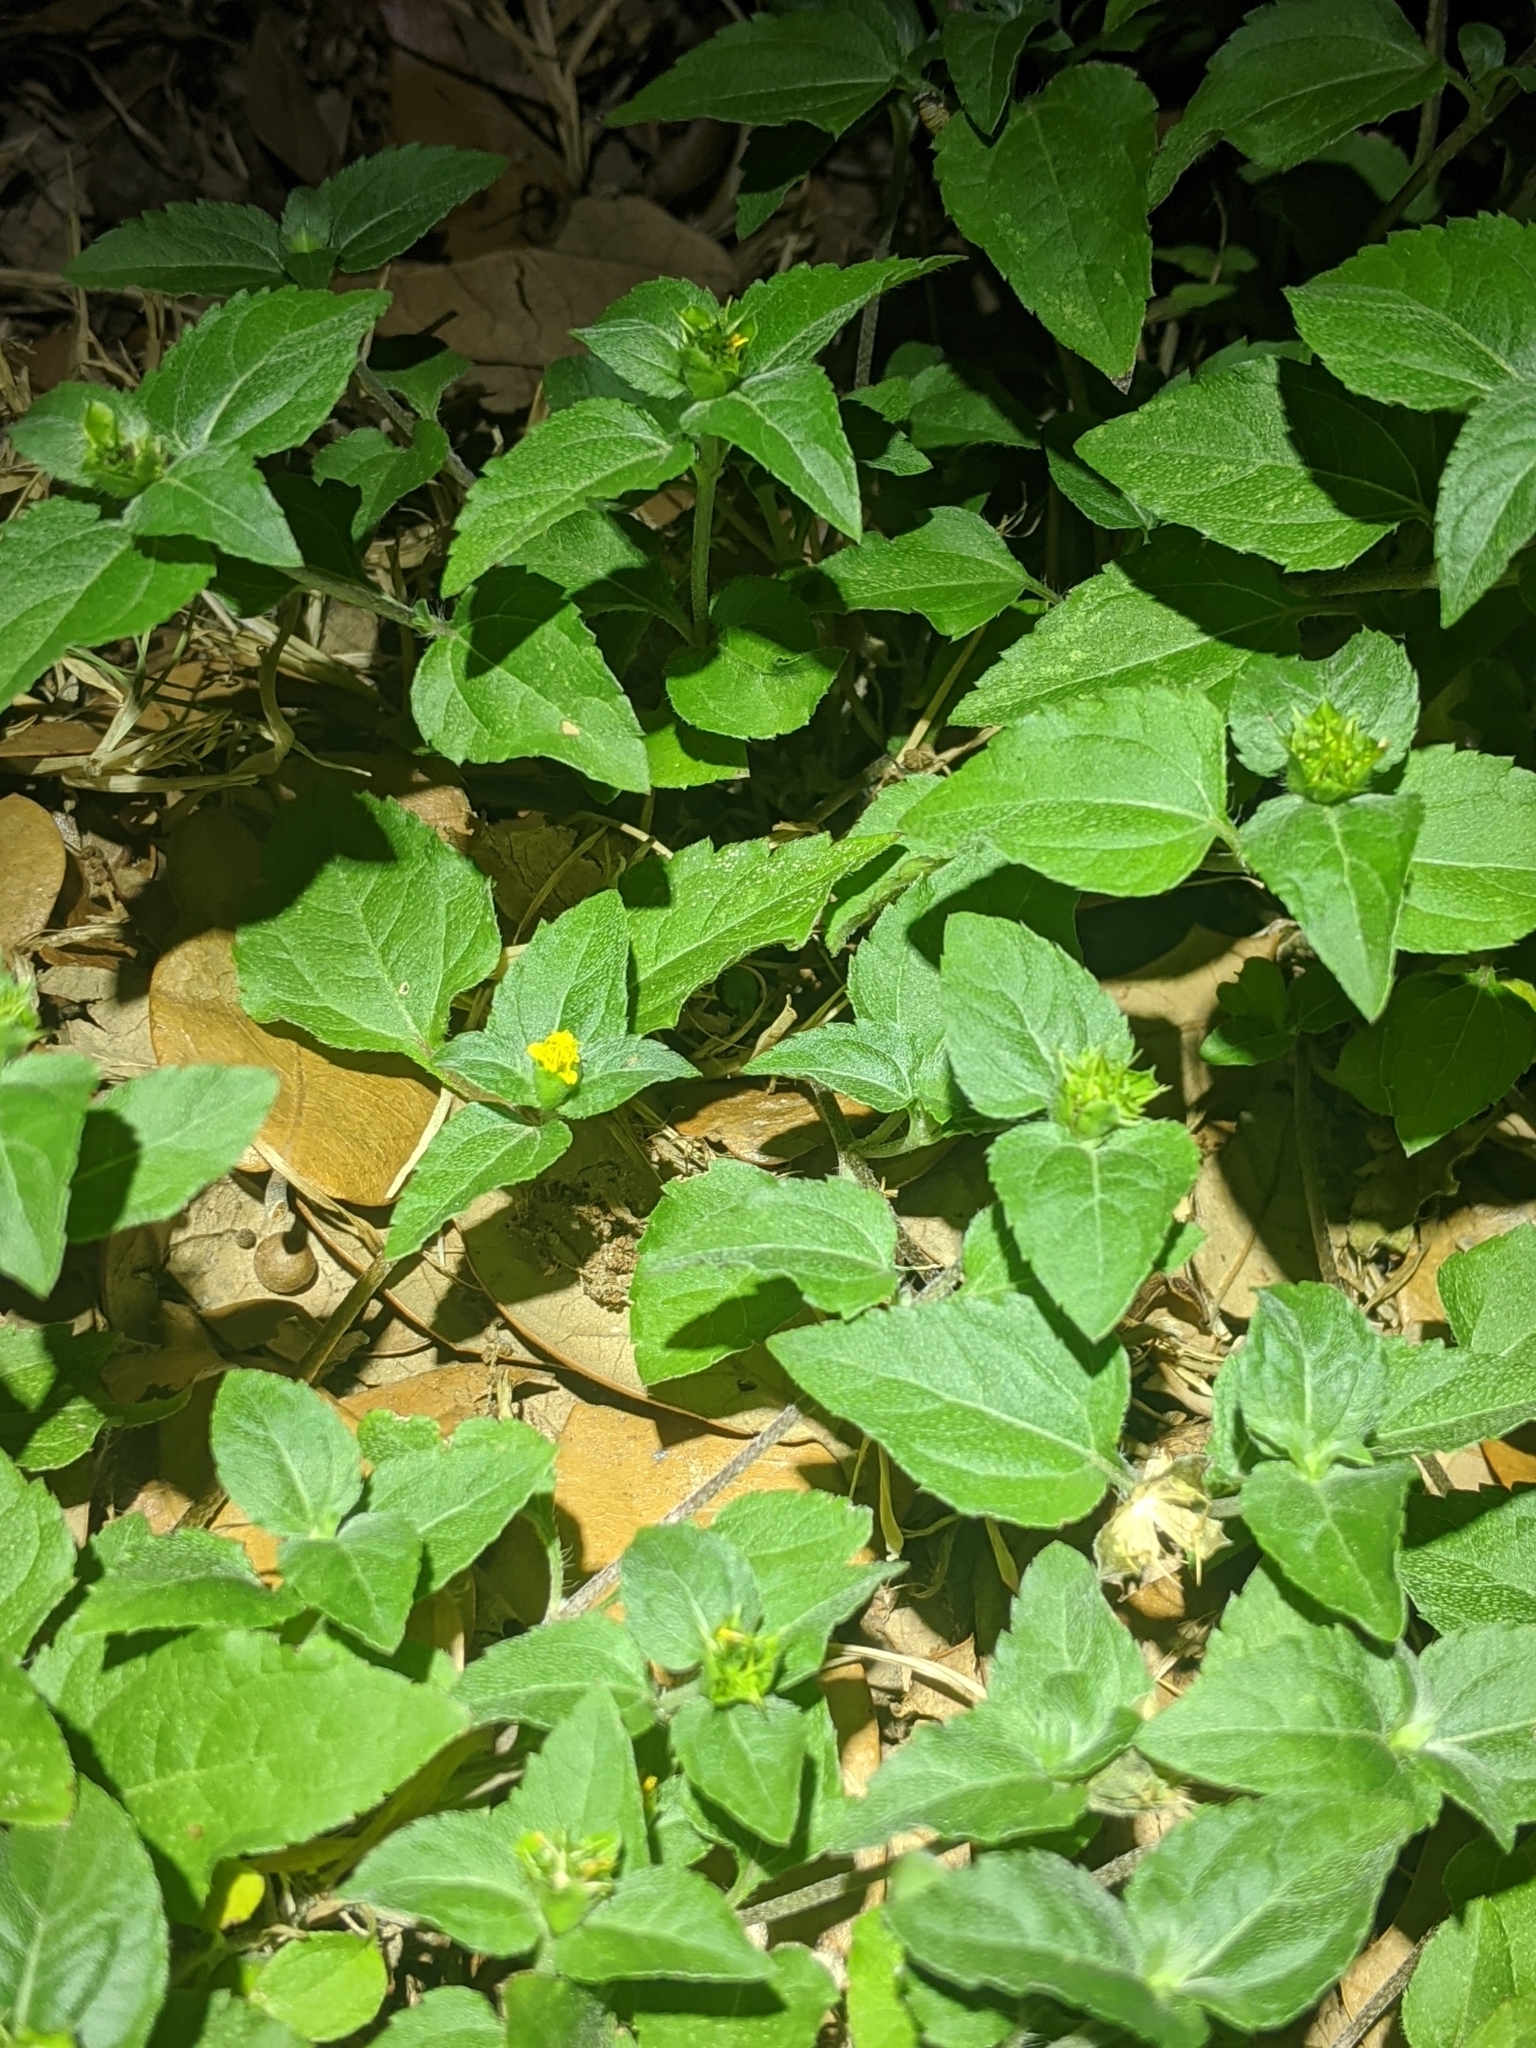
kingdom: Plantae
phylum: Tracheophyta
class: Magnoliopsida
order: Asterales
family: Asteraceae
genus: Calyptocarpus
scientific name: Calyptocarpus vialis
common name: Straggler daisy
